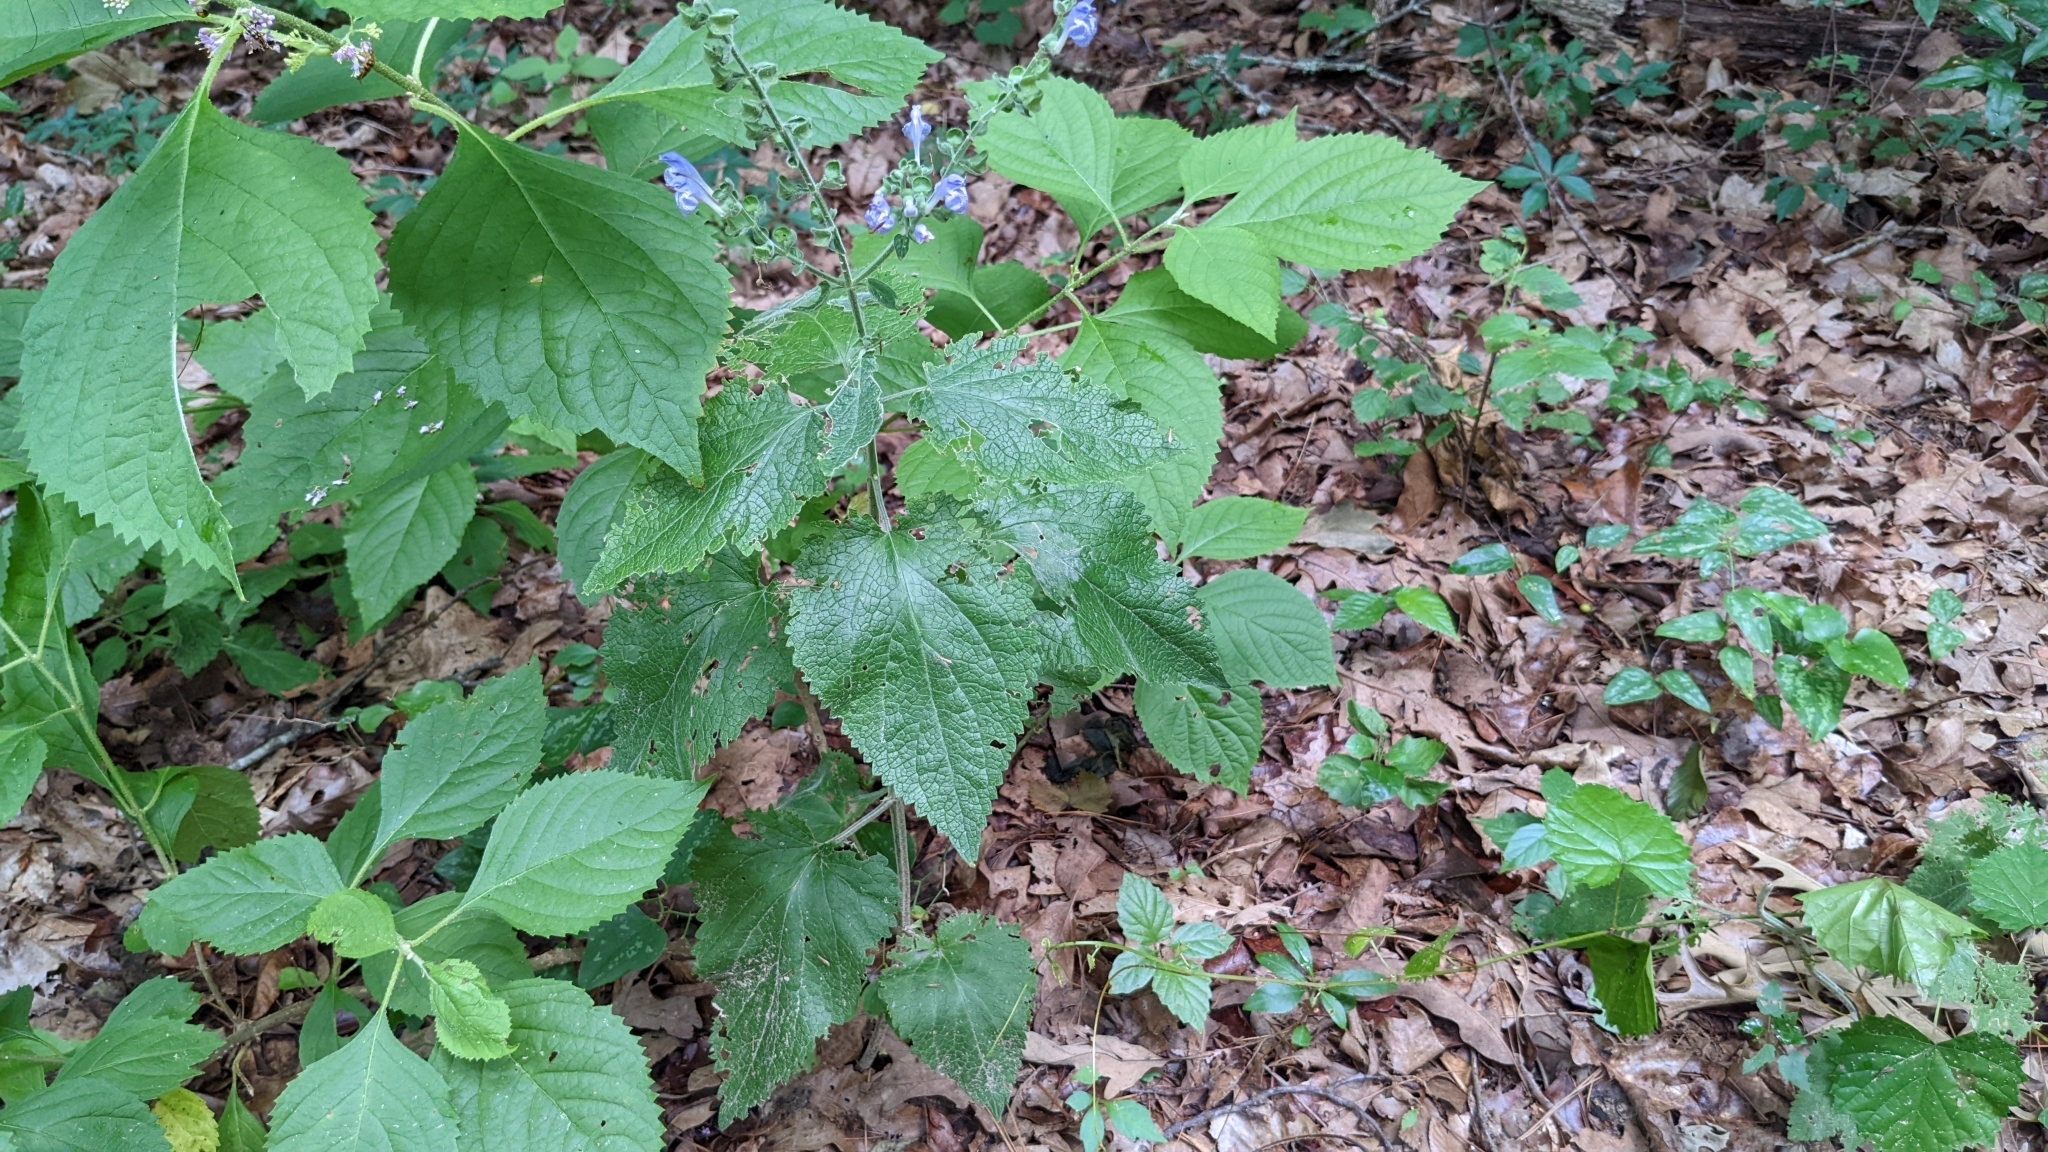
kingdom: Plantae
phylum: Tracheophyta
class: Magnoliopsida
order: Lamiales
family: Lamiaceae
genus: Scutellaria
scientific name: Scutellaria ovata
